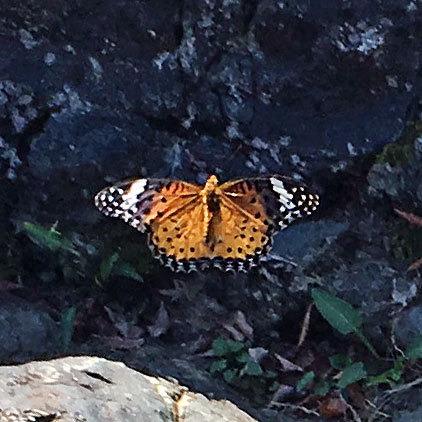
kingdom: Animalia
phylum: Arthropoda
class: Insecta
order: Lepidoptera
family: Nymphalidae
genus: Argynnis
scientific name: Argynnis hyperbius
